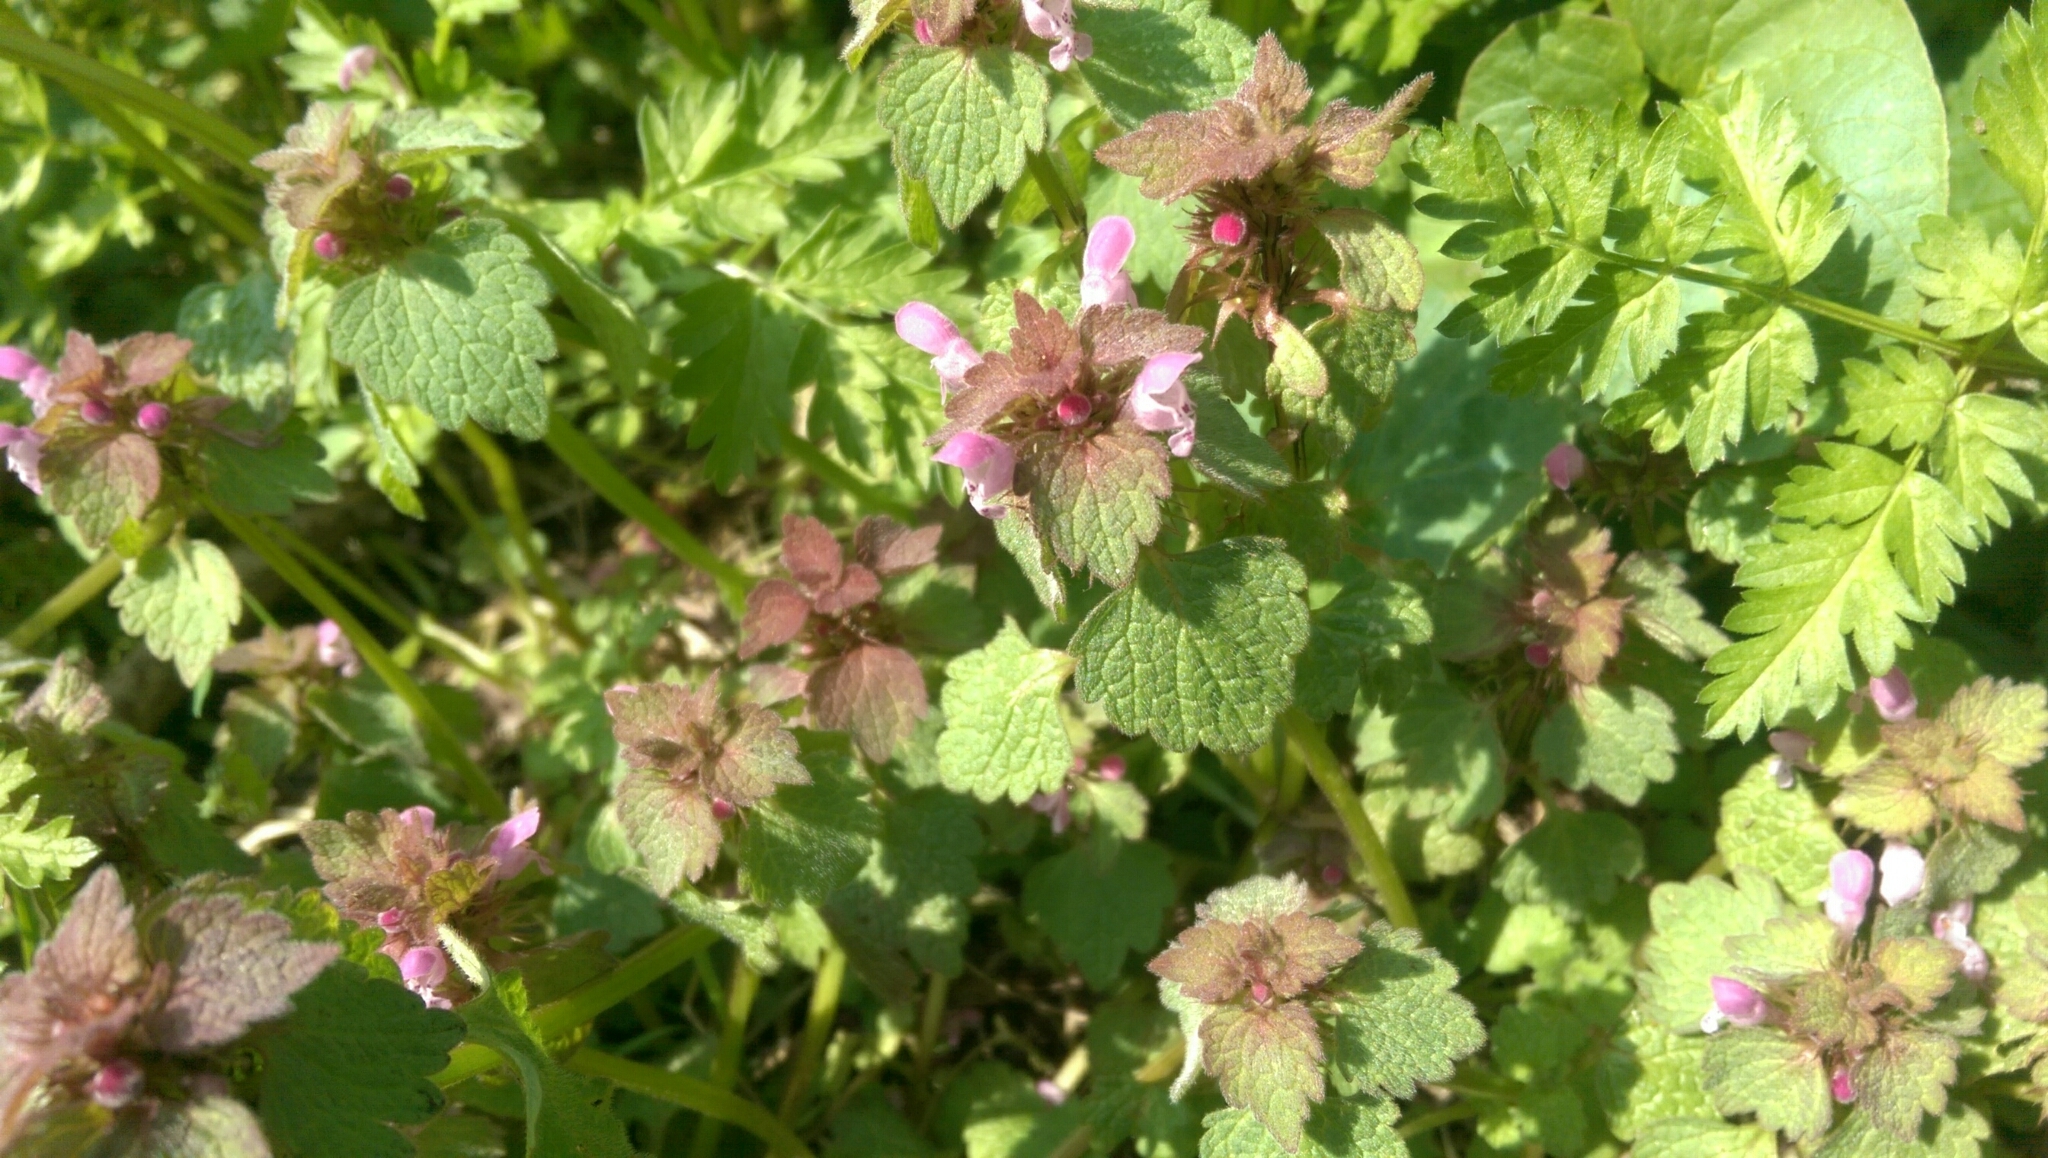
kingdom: Plantae
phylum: Tracheophyta
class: Magnoliopsida
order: Lamiales
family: Lamiaceae
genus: Lamium
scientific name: Lamium purpureum
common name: Red dead-nettle
